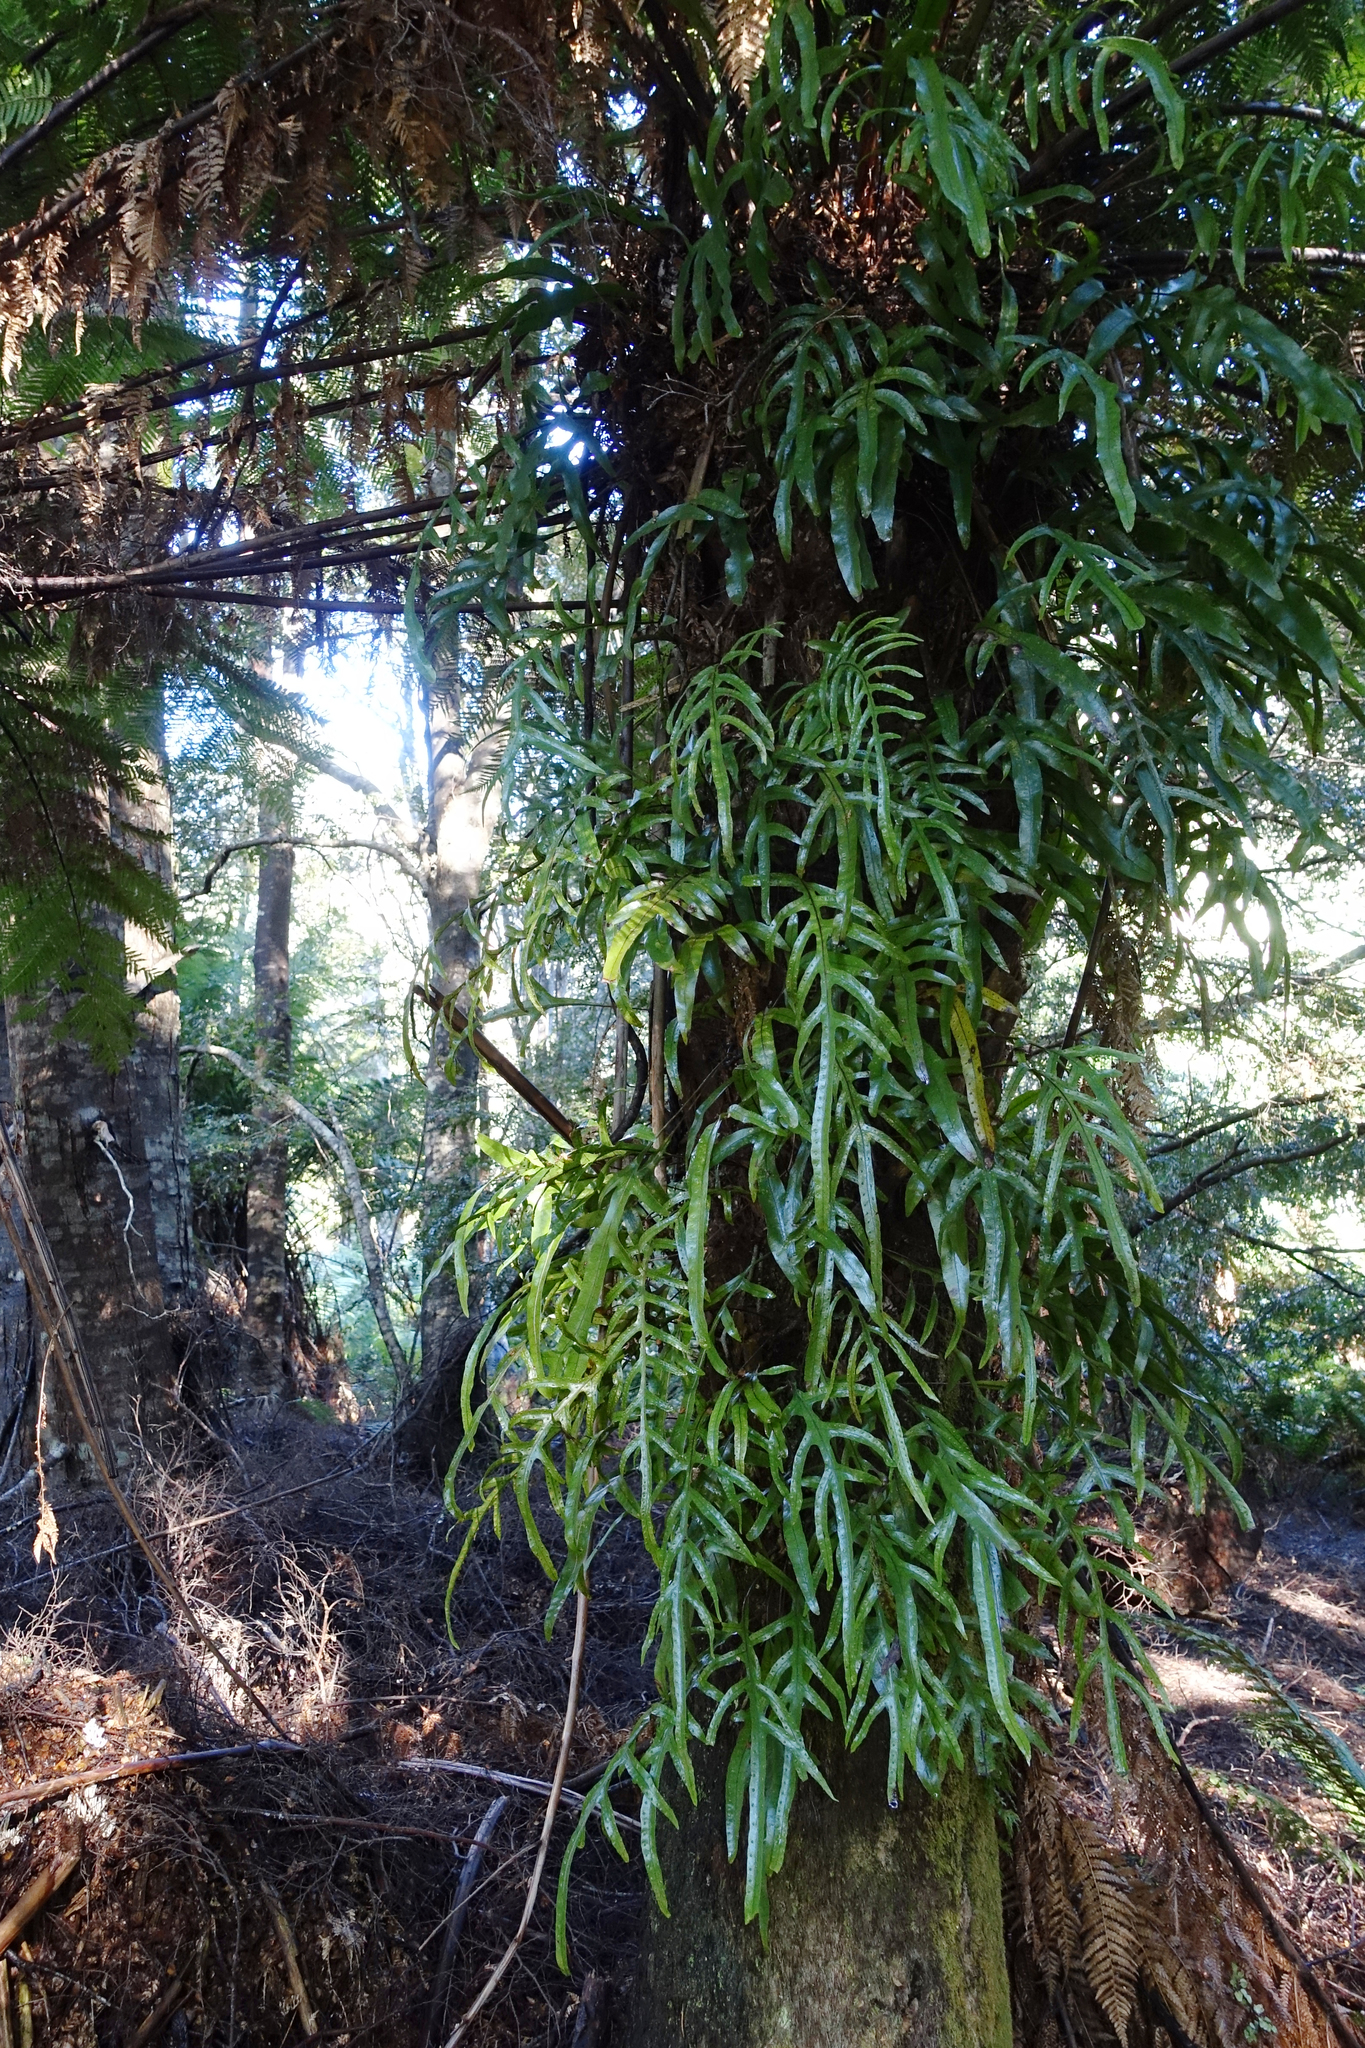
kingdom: Plantae
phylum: Tracheophyta
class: Polypodiopsida
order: Polypodiales
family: Polypodiaceae
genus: Lecanopteris
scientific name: Lecanopteris pustulata
